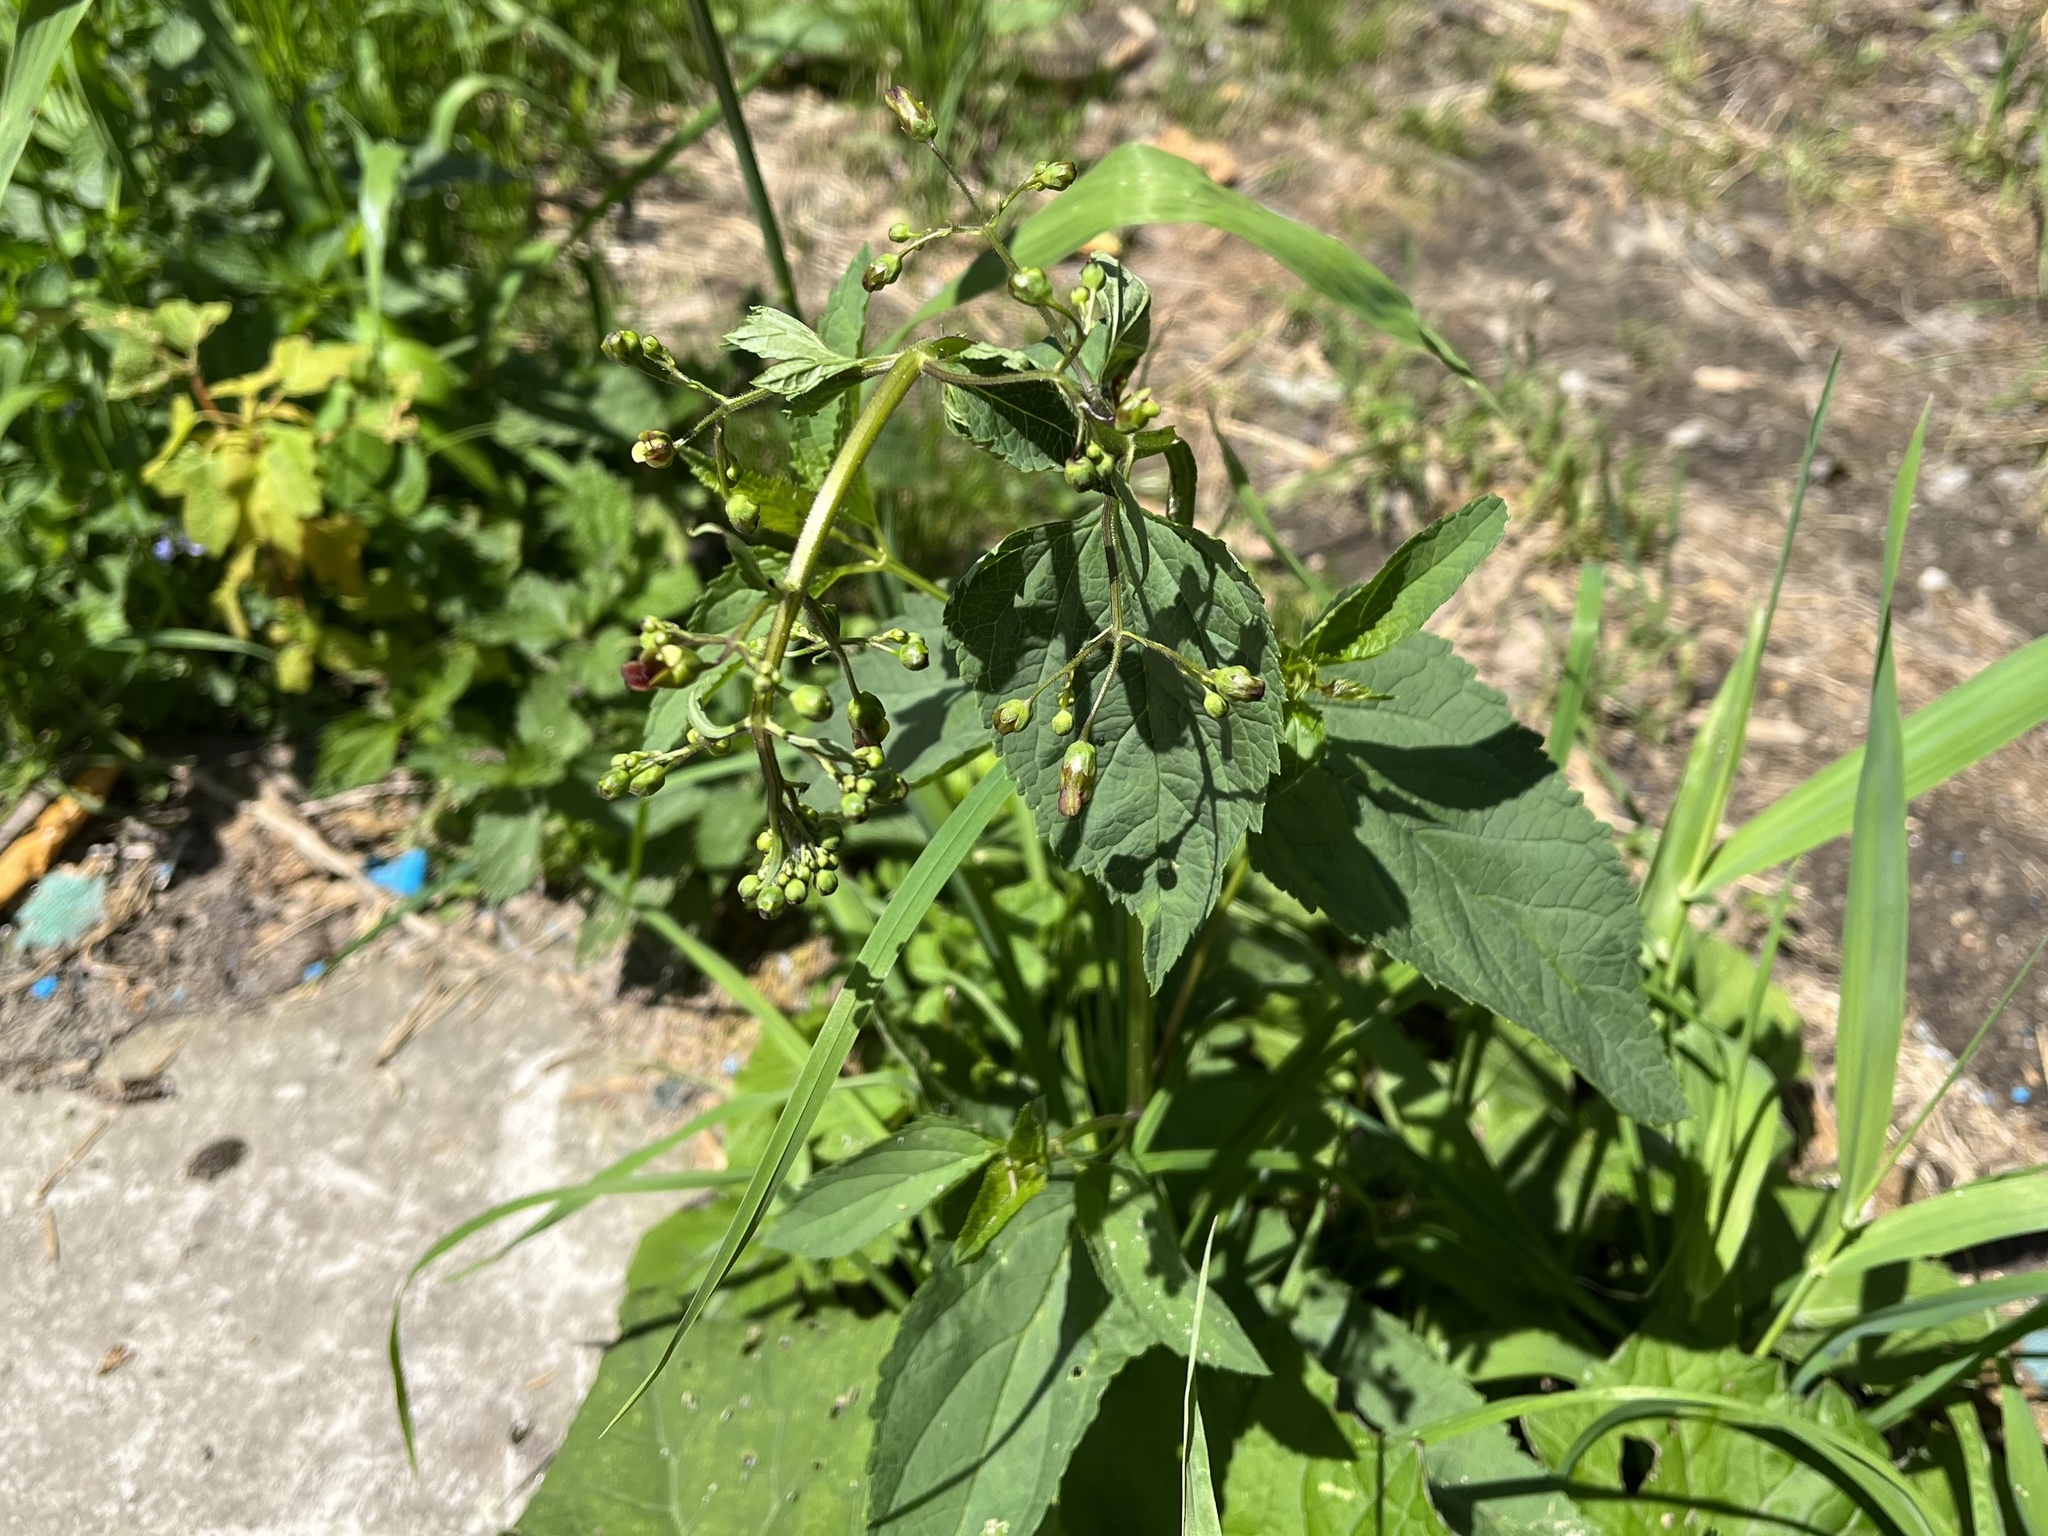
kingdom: Plantae
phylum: Tracheophyta
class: Magnoliopsida
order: Lamiales
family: Scrophulariaceae
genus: Scrophularia
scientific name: Scrophularia nodosa
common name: Common figwort
